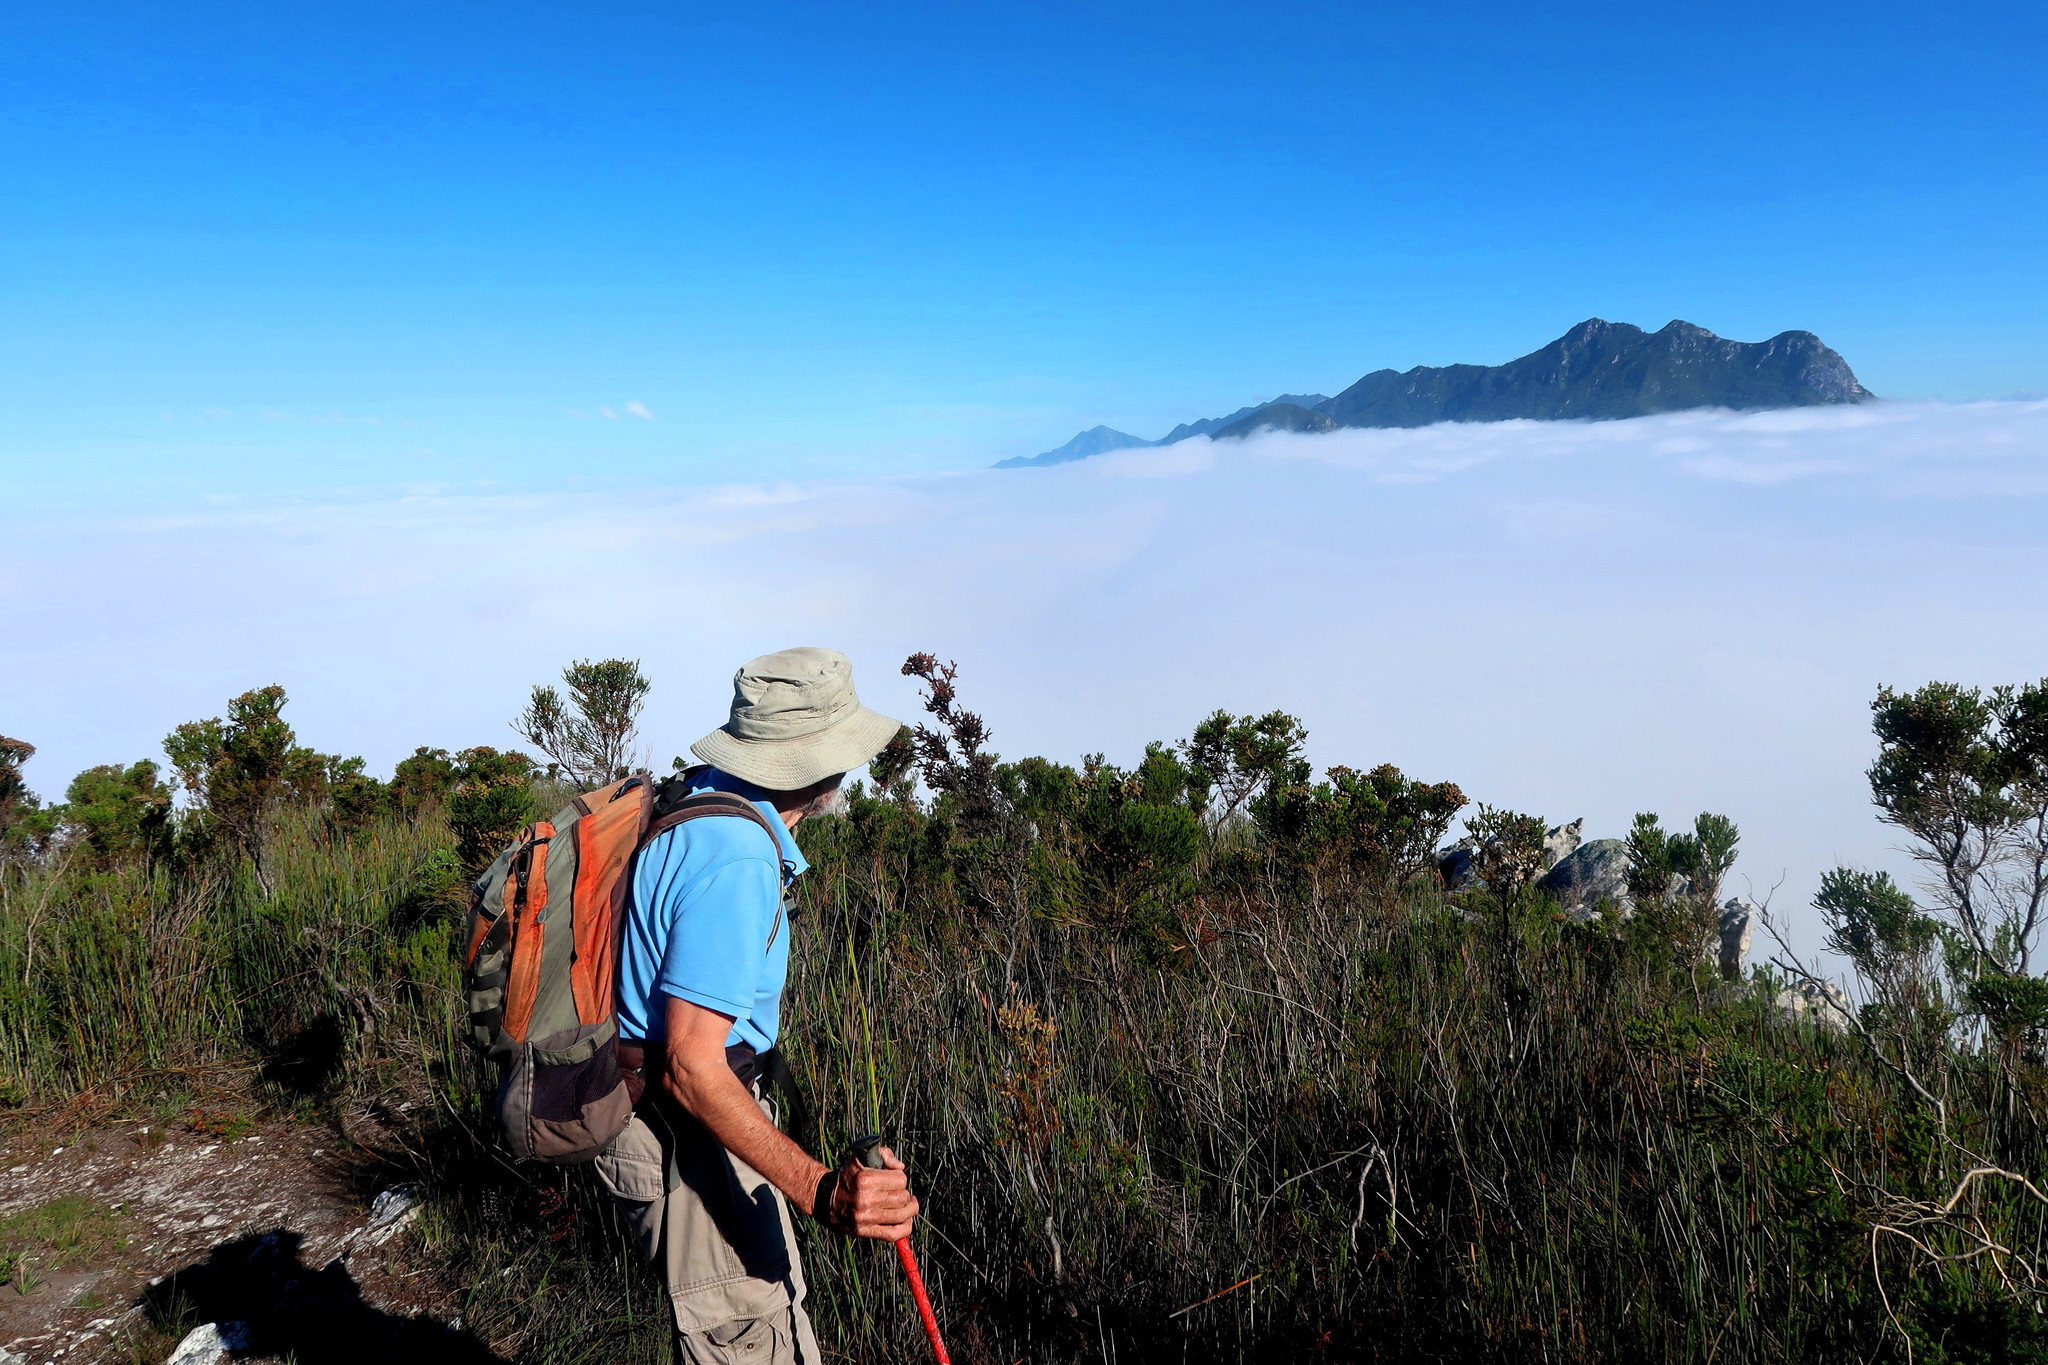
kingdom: Plantae
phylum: Tracheophyta
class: Magnoliopsida
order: Bruniales
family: Bruniaceae
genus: Berzelia
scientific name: Berzelia intermedia
